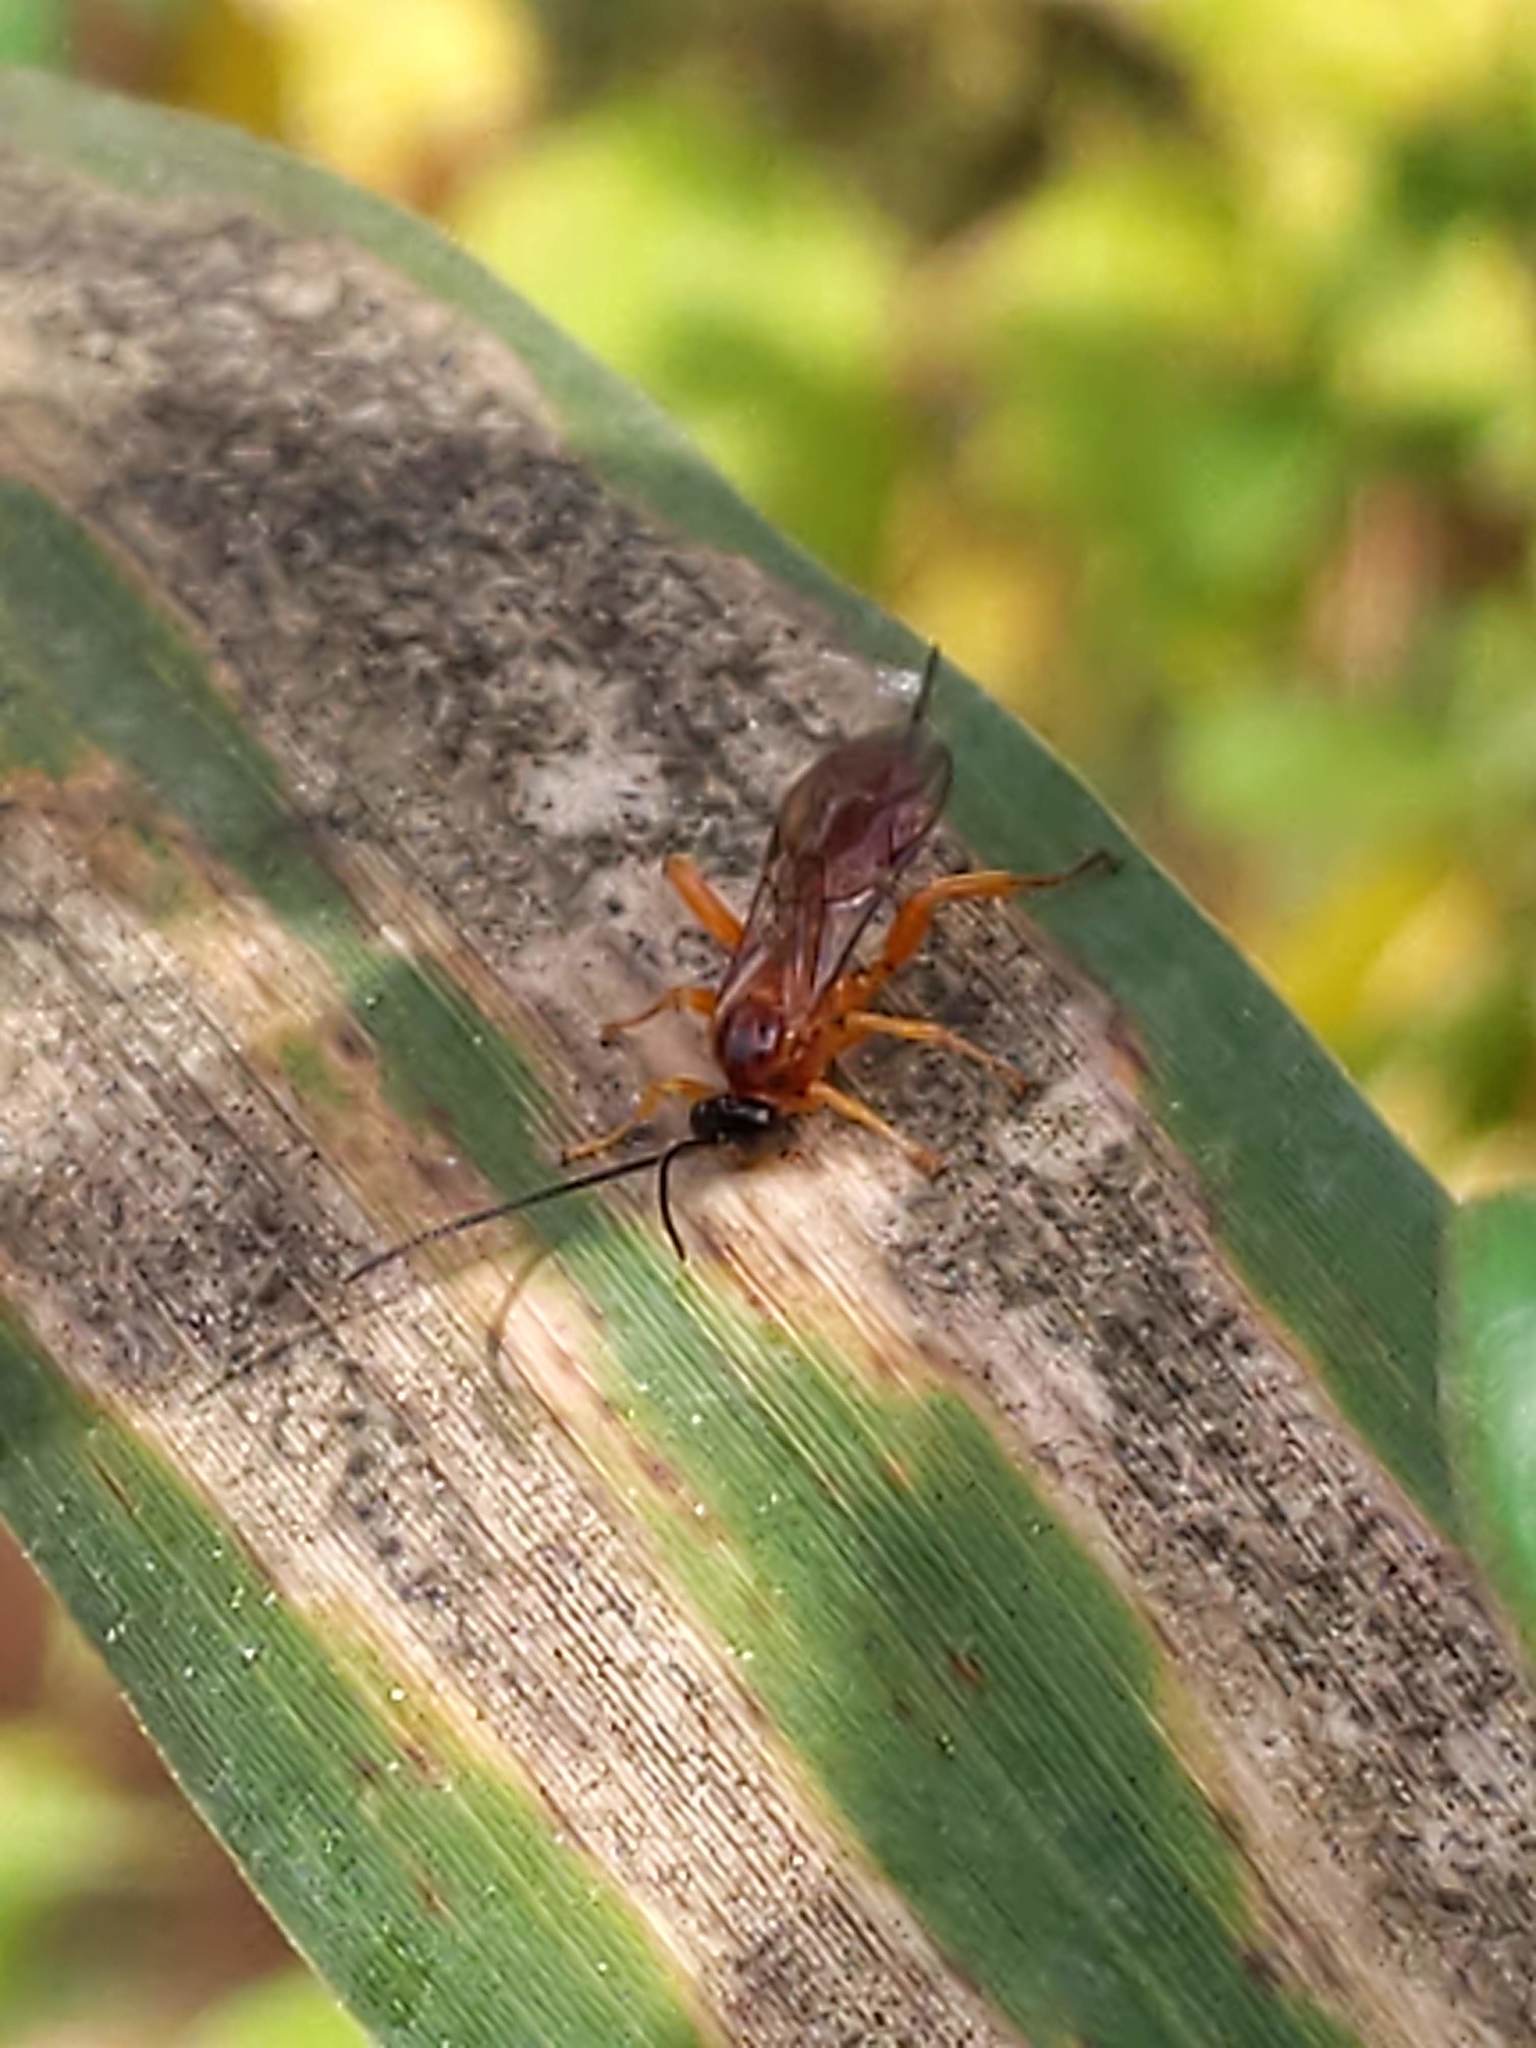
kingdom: Animalia
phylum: Arthropoda
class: Insecta
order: Hymenoptera
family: Ichneumonidae
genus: Theronia
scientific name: Theronia hilaris
